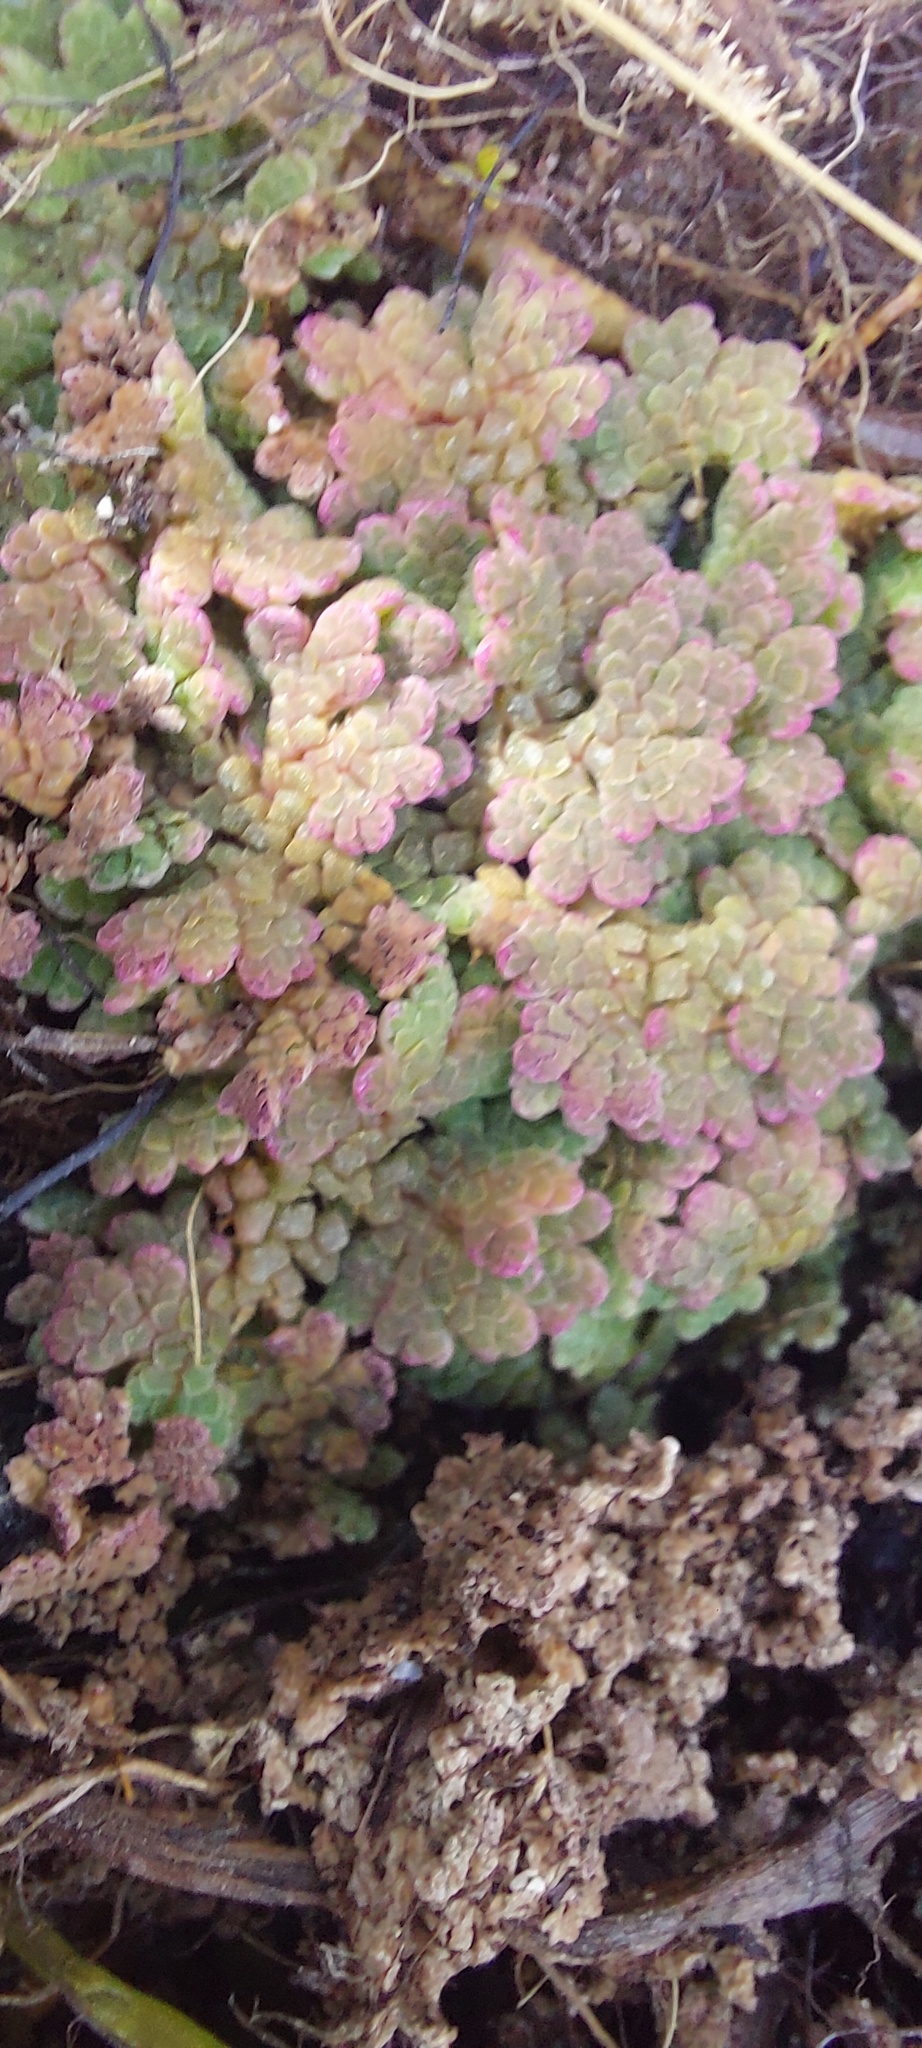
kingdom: Plantae
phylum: Tracheophyta
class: Polypodiopsida
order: Salviniales
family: Salviniaceae
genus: Azolla
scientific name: Azolla rubra
